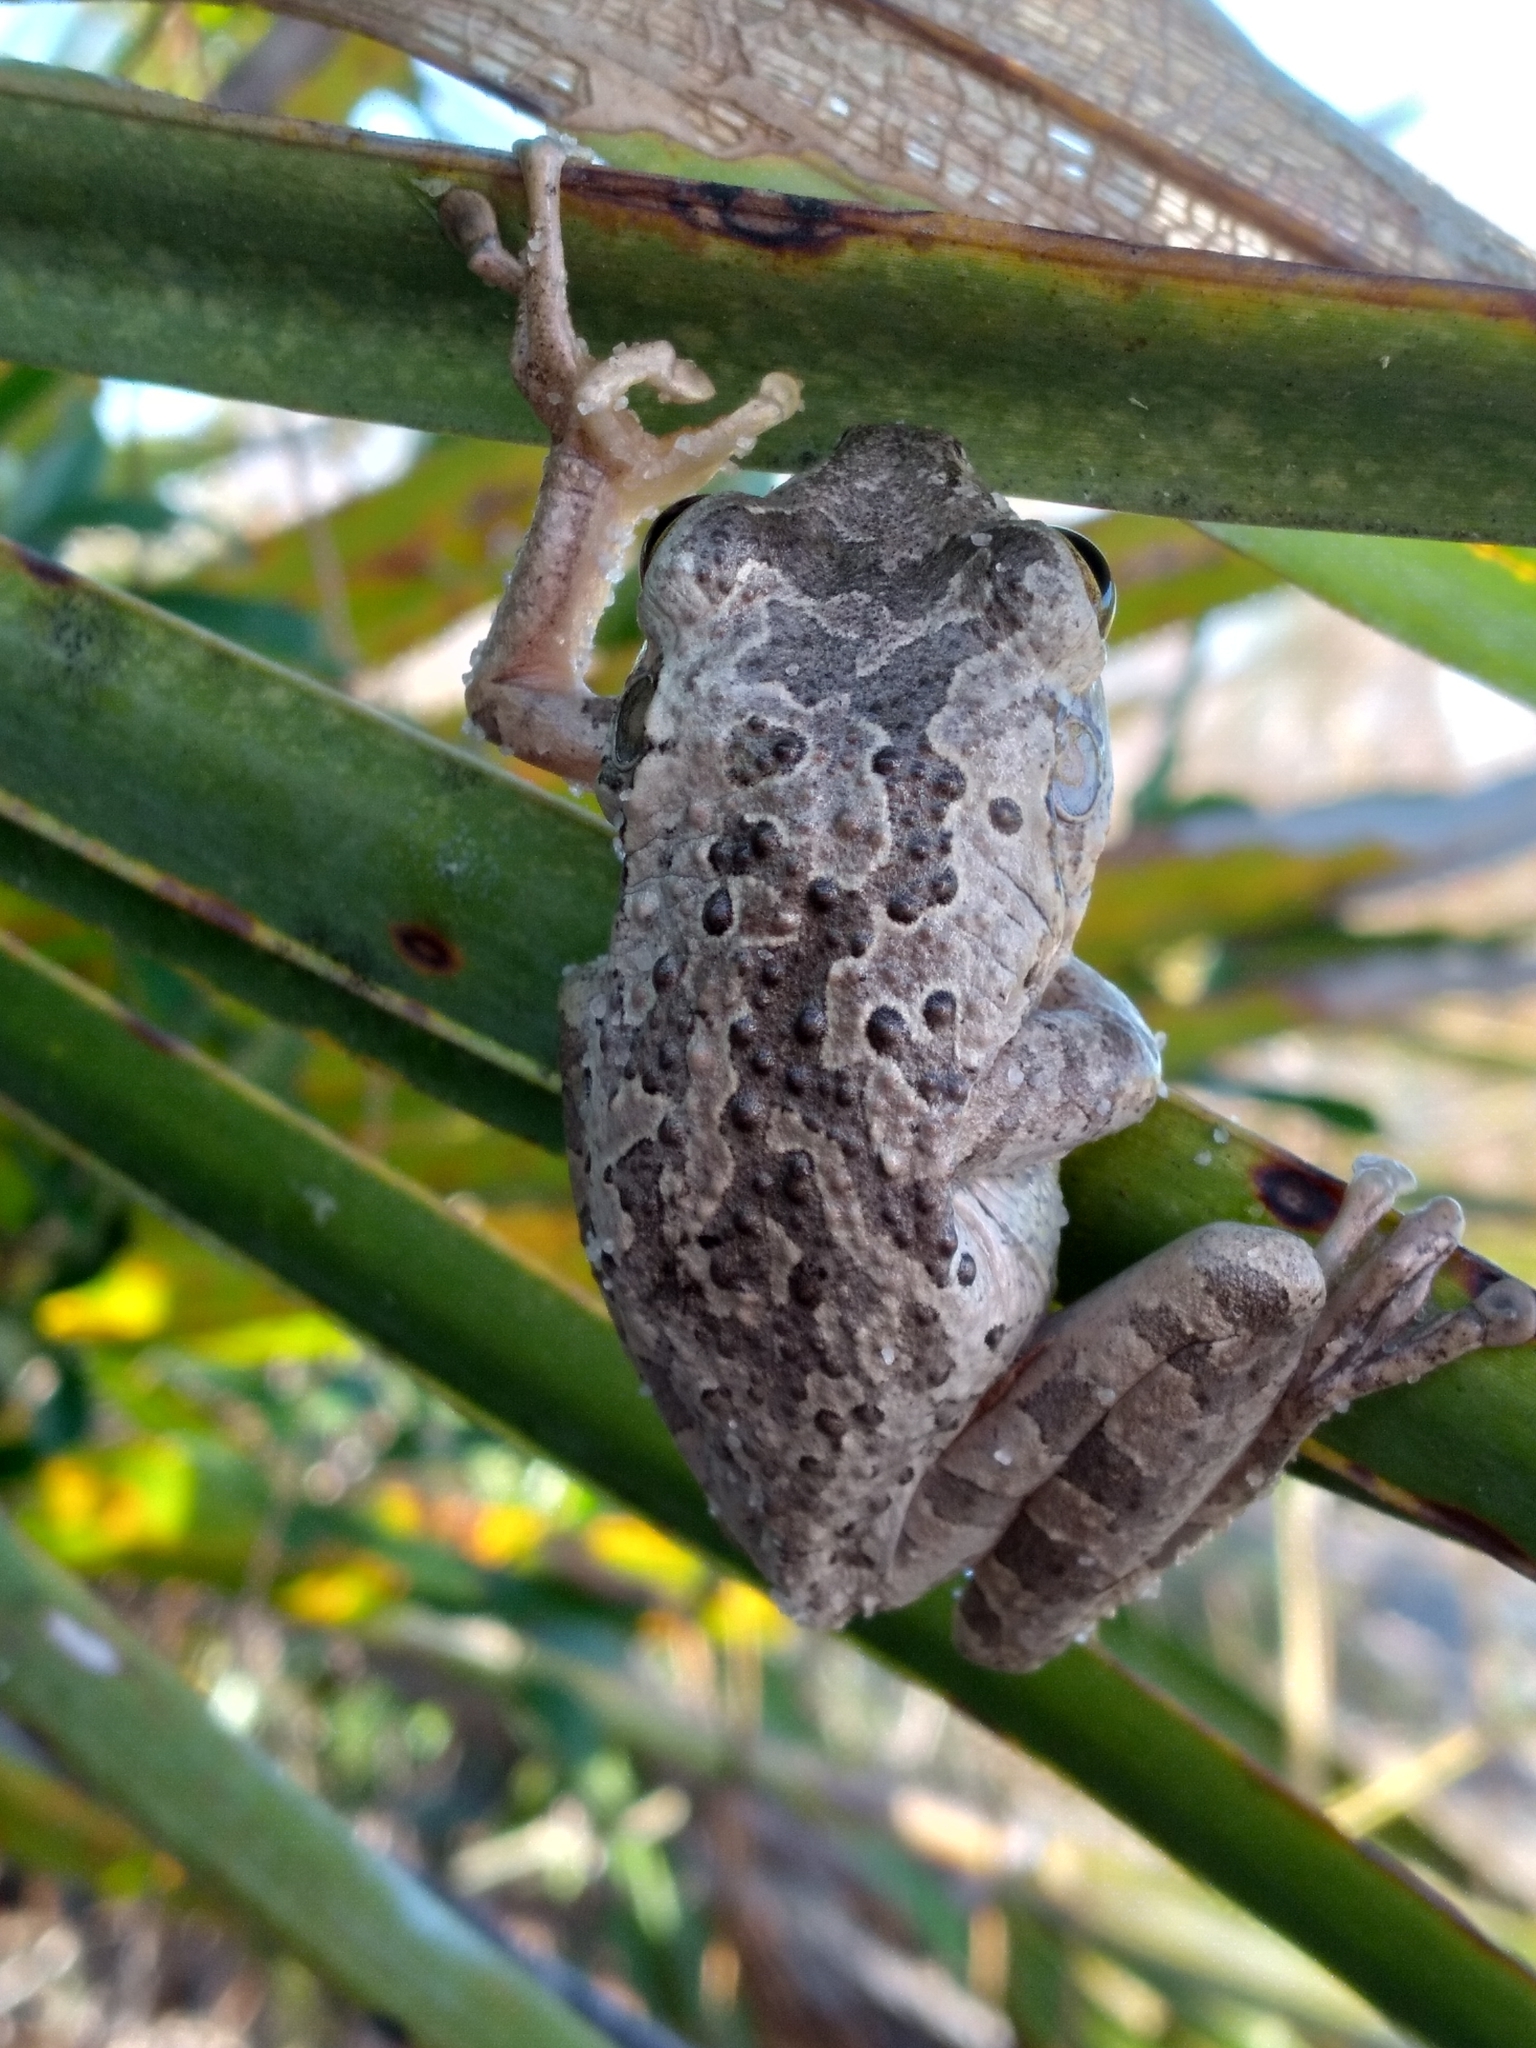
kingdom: Animalia
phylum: Chordata
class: Amphibia
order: Anura
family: Hylidae
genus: Osteopilus
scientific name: Osteopilus septentrionalis
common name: Cuban treefrog
